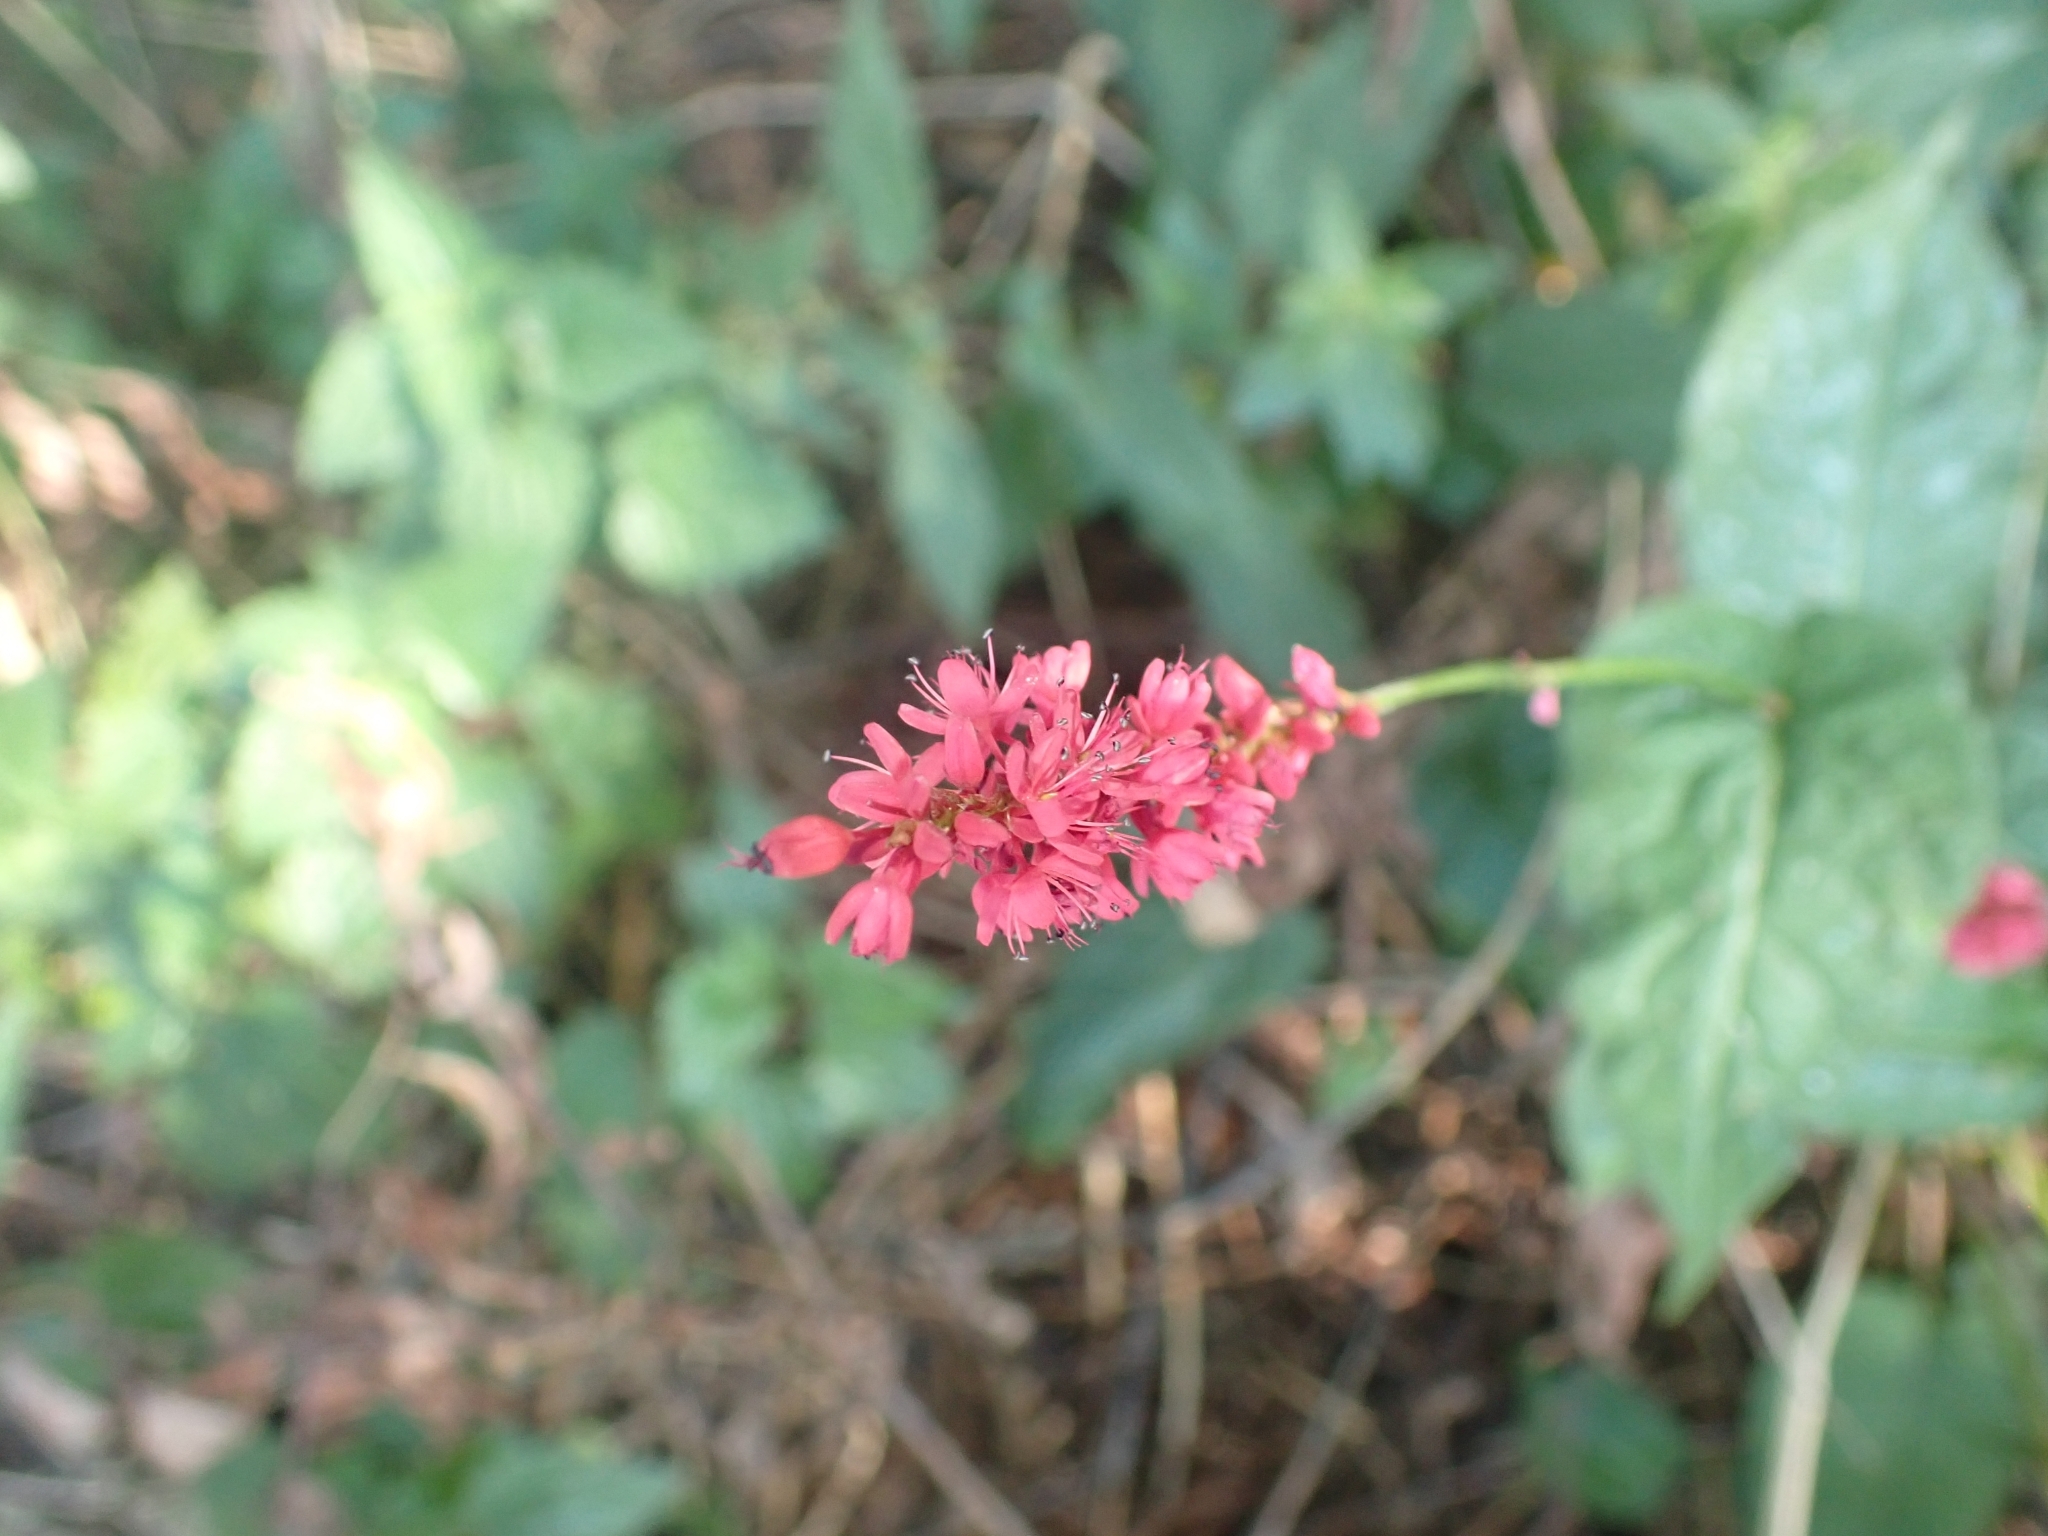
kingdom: Plantae
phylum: Tracheophyta
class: Magnoliopsida
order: Caryophyllales
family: Polygonaceae
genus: Bistorta
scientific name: Bistorta amplexicaulis
